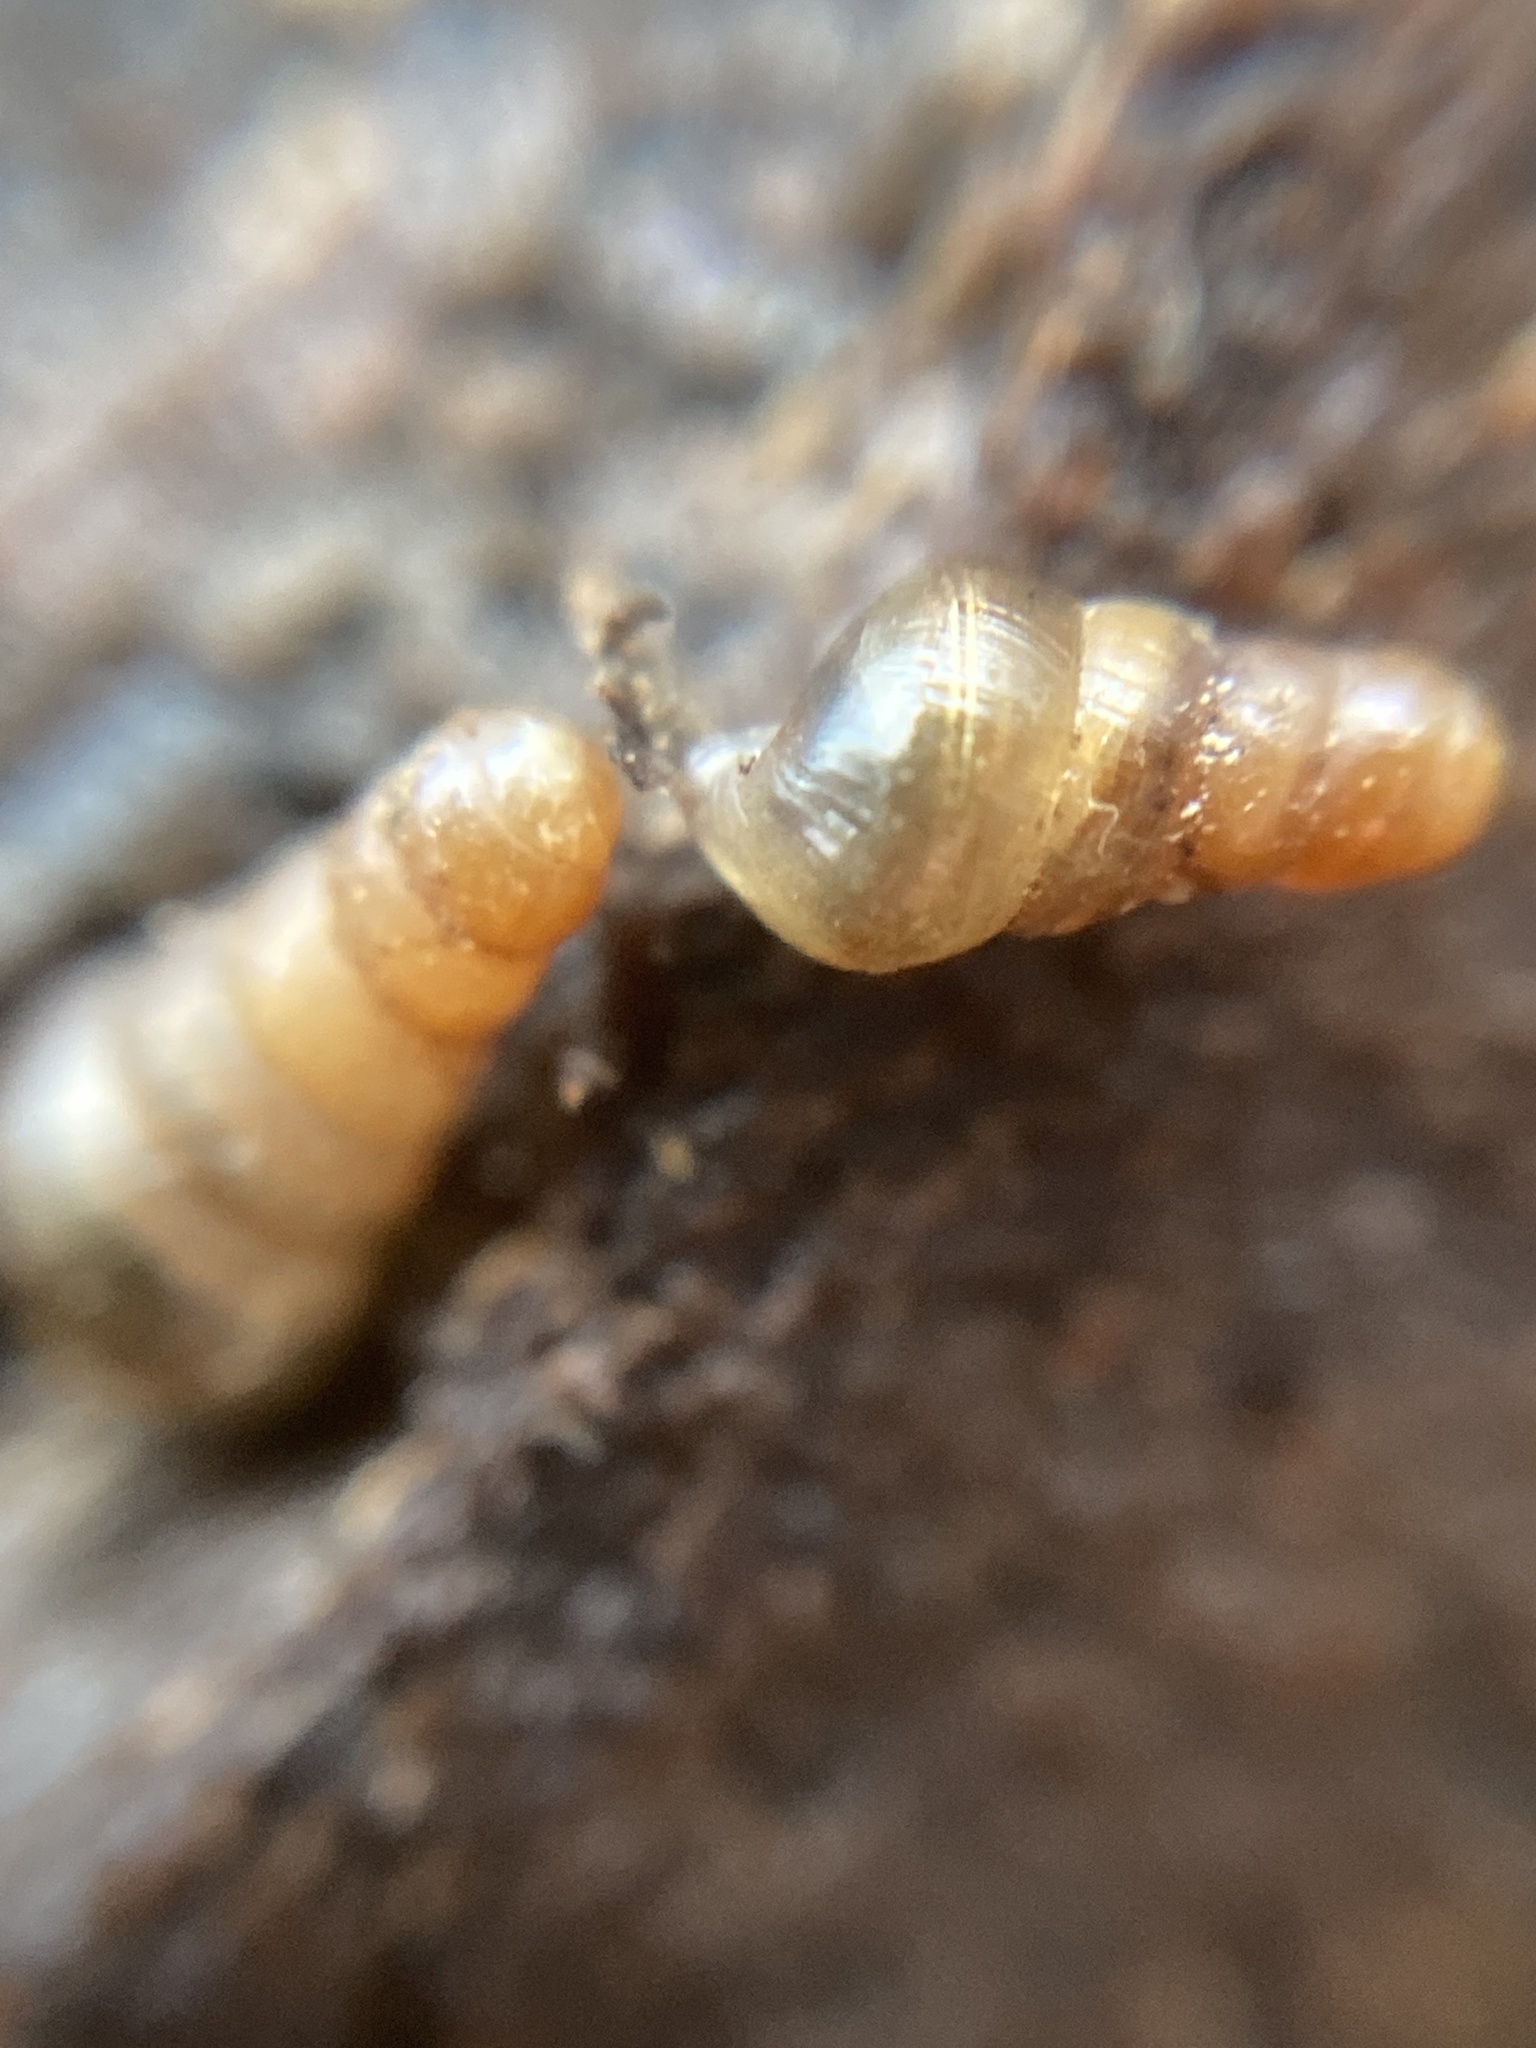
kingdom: Animalia
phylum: Mollusca
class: Gastropoda
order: Stylommatophora
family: Clausiliidae
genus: Cochlodina
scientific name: Cochlodina laminata
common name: Plaited door snail
